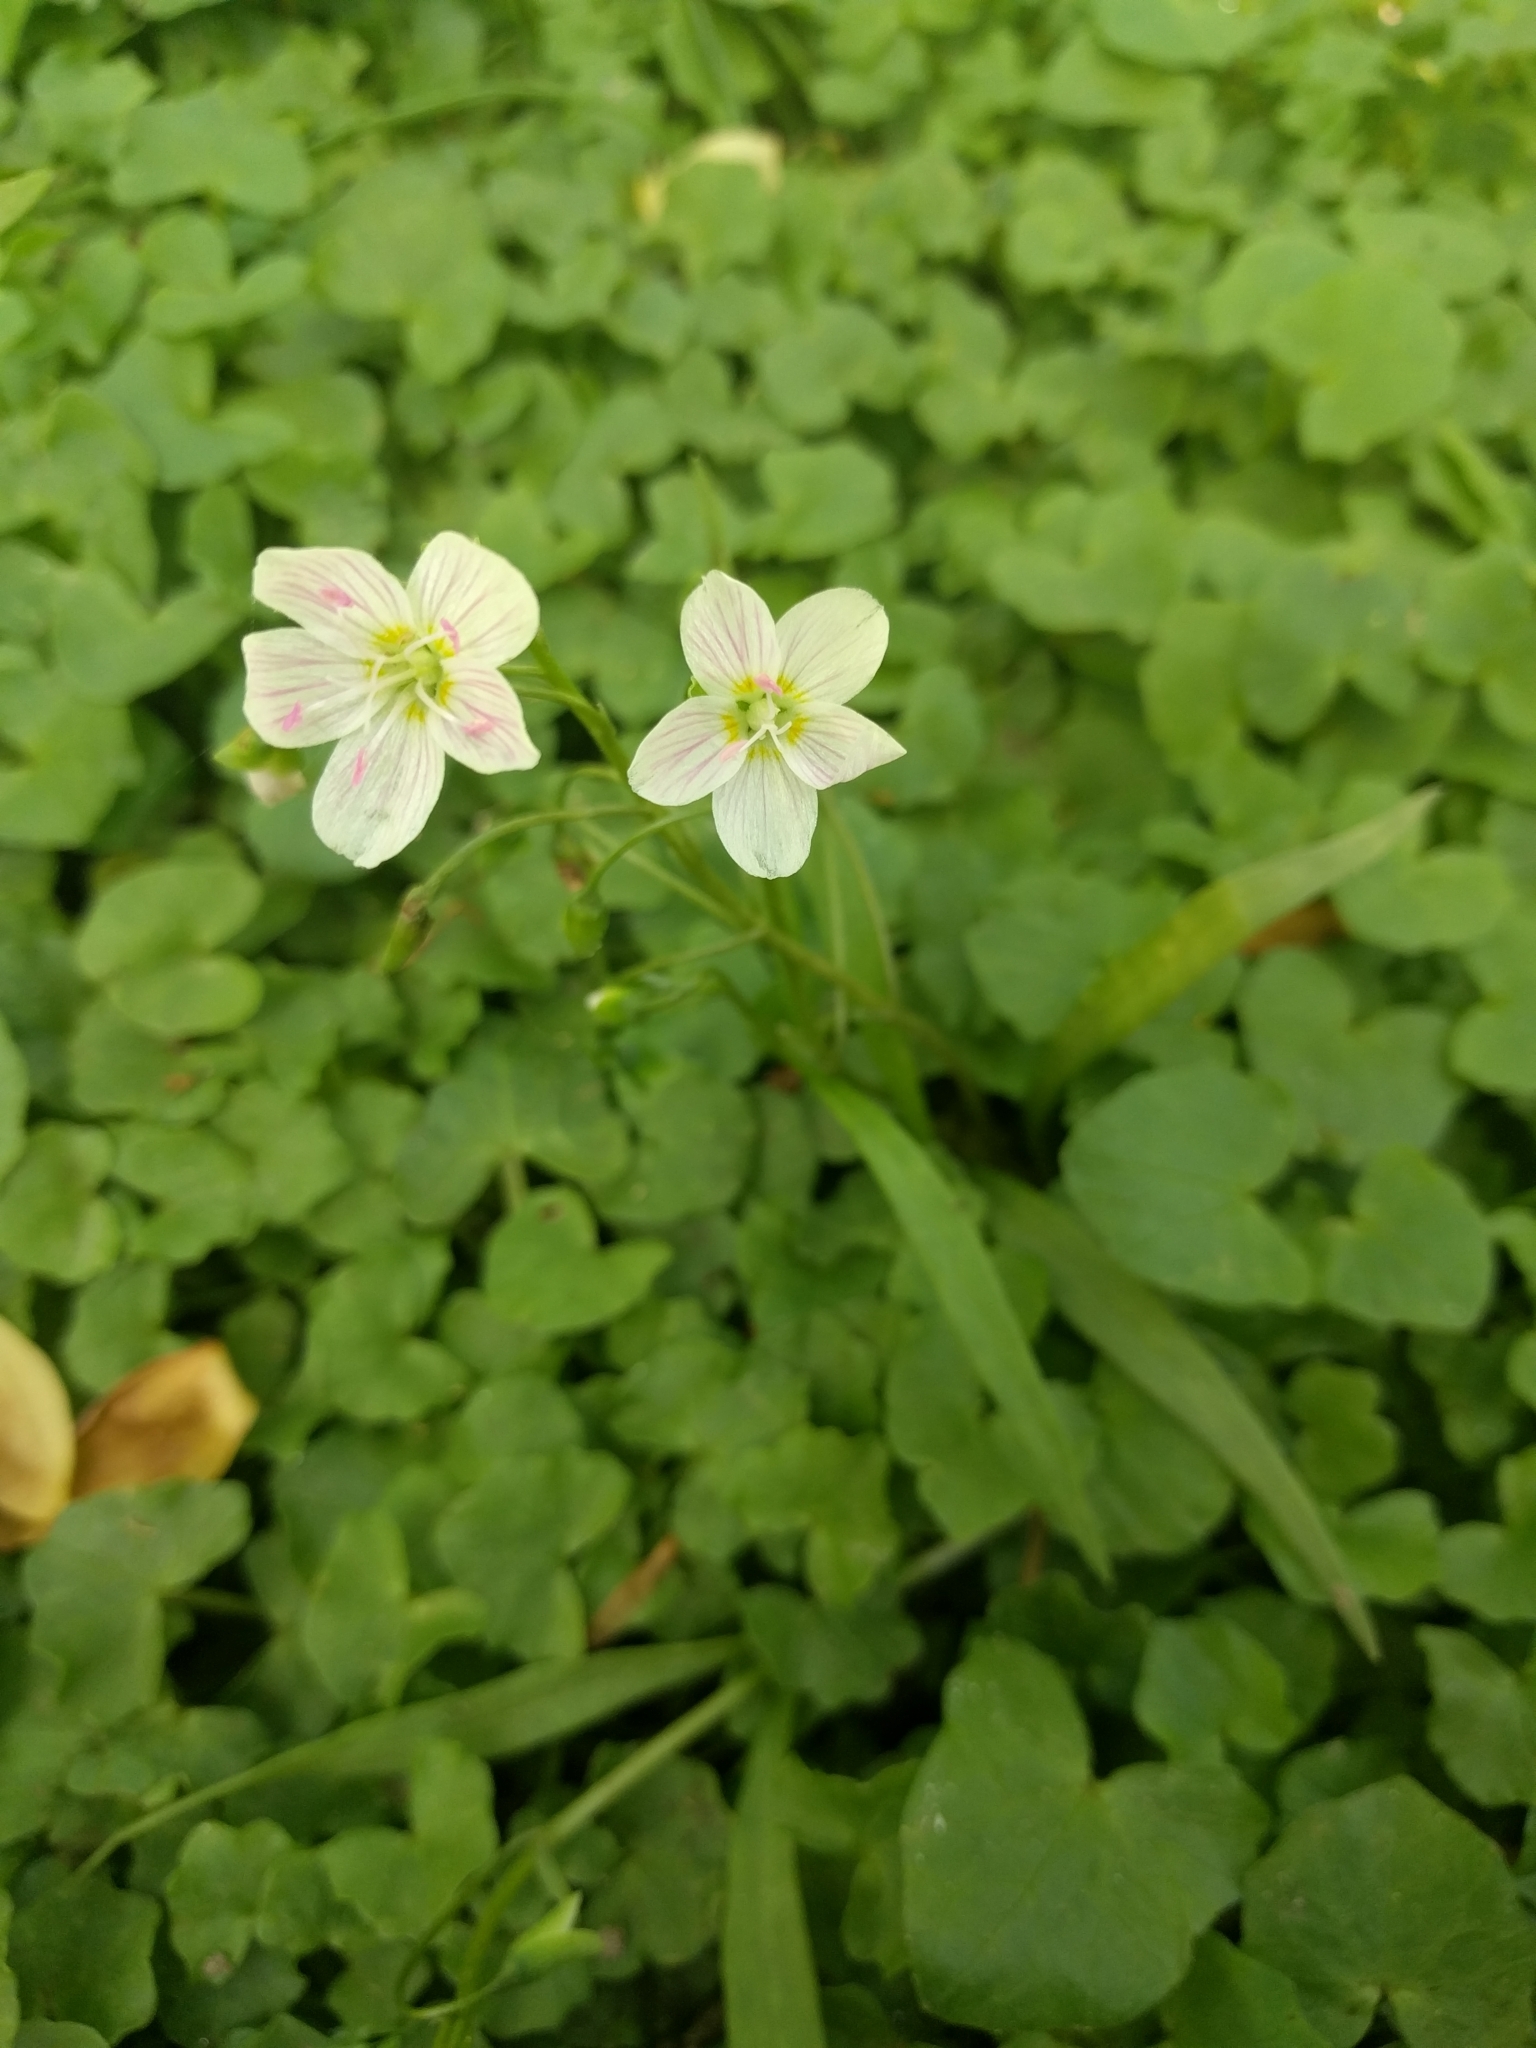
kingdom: Plantae
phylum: Tracheophyta
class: Magnoliopsida
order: Caryophyllales
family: Montiaceae
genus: Claytonia
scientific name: Claytonia virginica
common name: Virginia springbeauty
